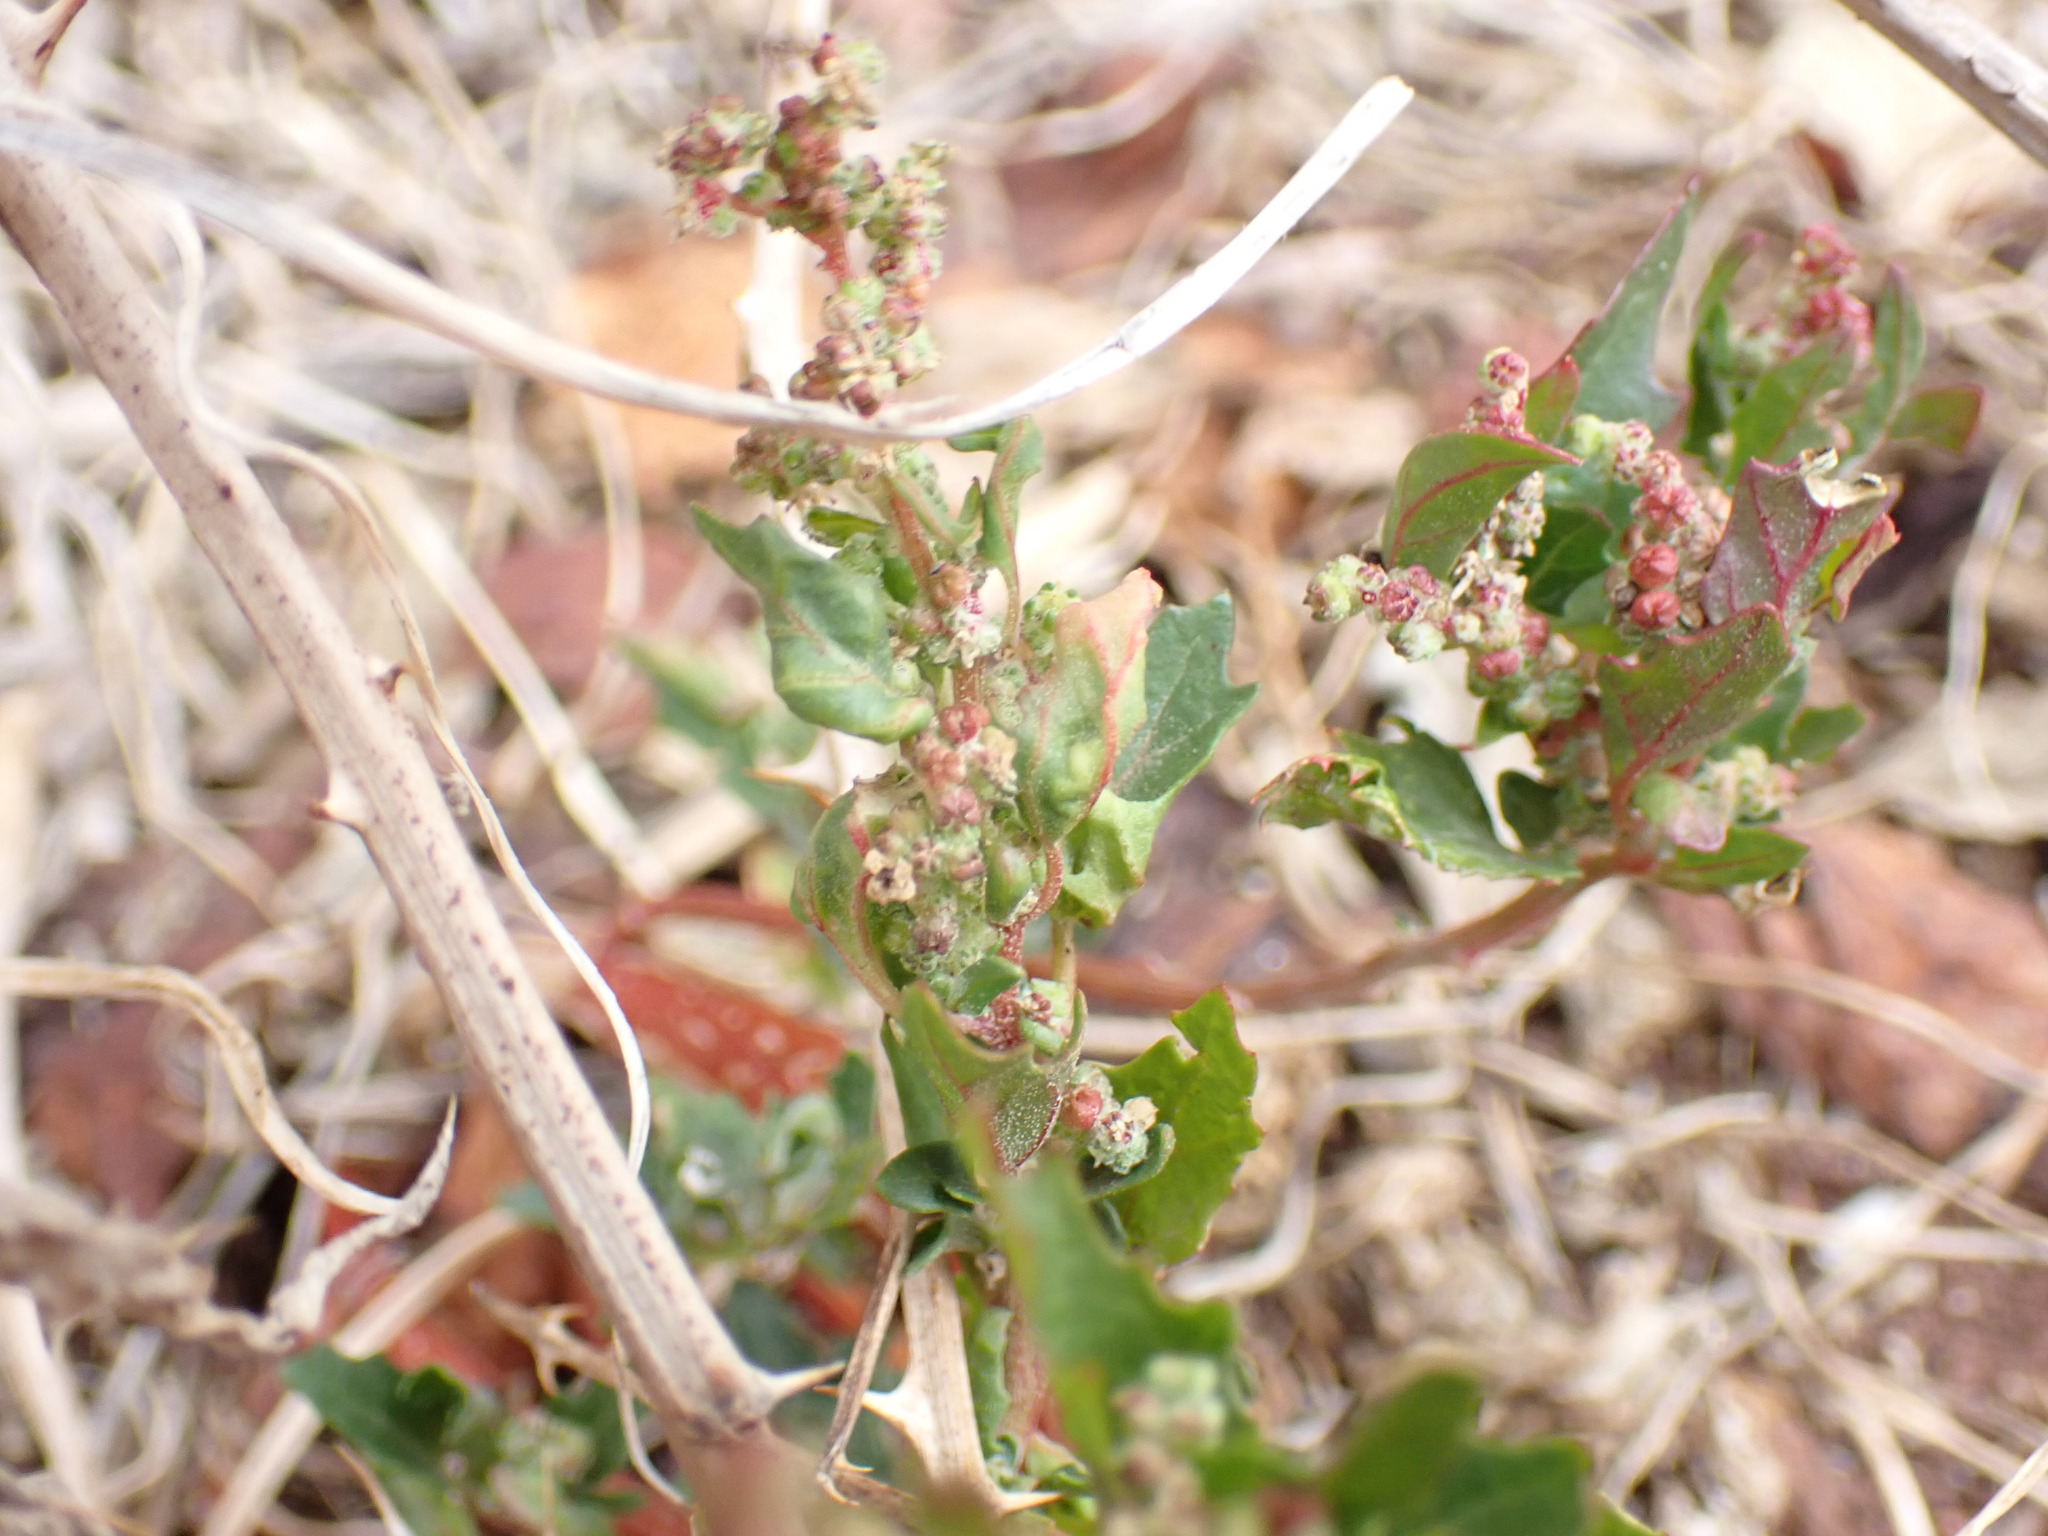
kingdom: Plantae
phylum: Tracheophyta
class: Magnoliopsida
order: Caryophyllales
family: Amaranthaceae
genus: Chenopodiastrum
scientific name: Chenopodiastrum murale
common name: Sowbane
